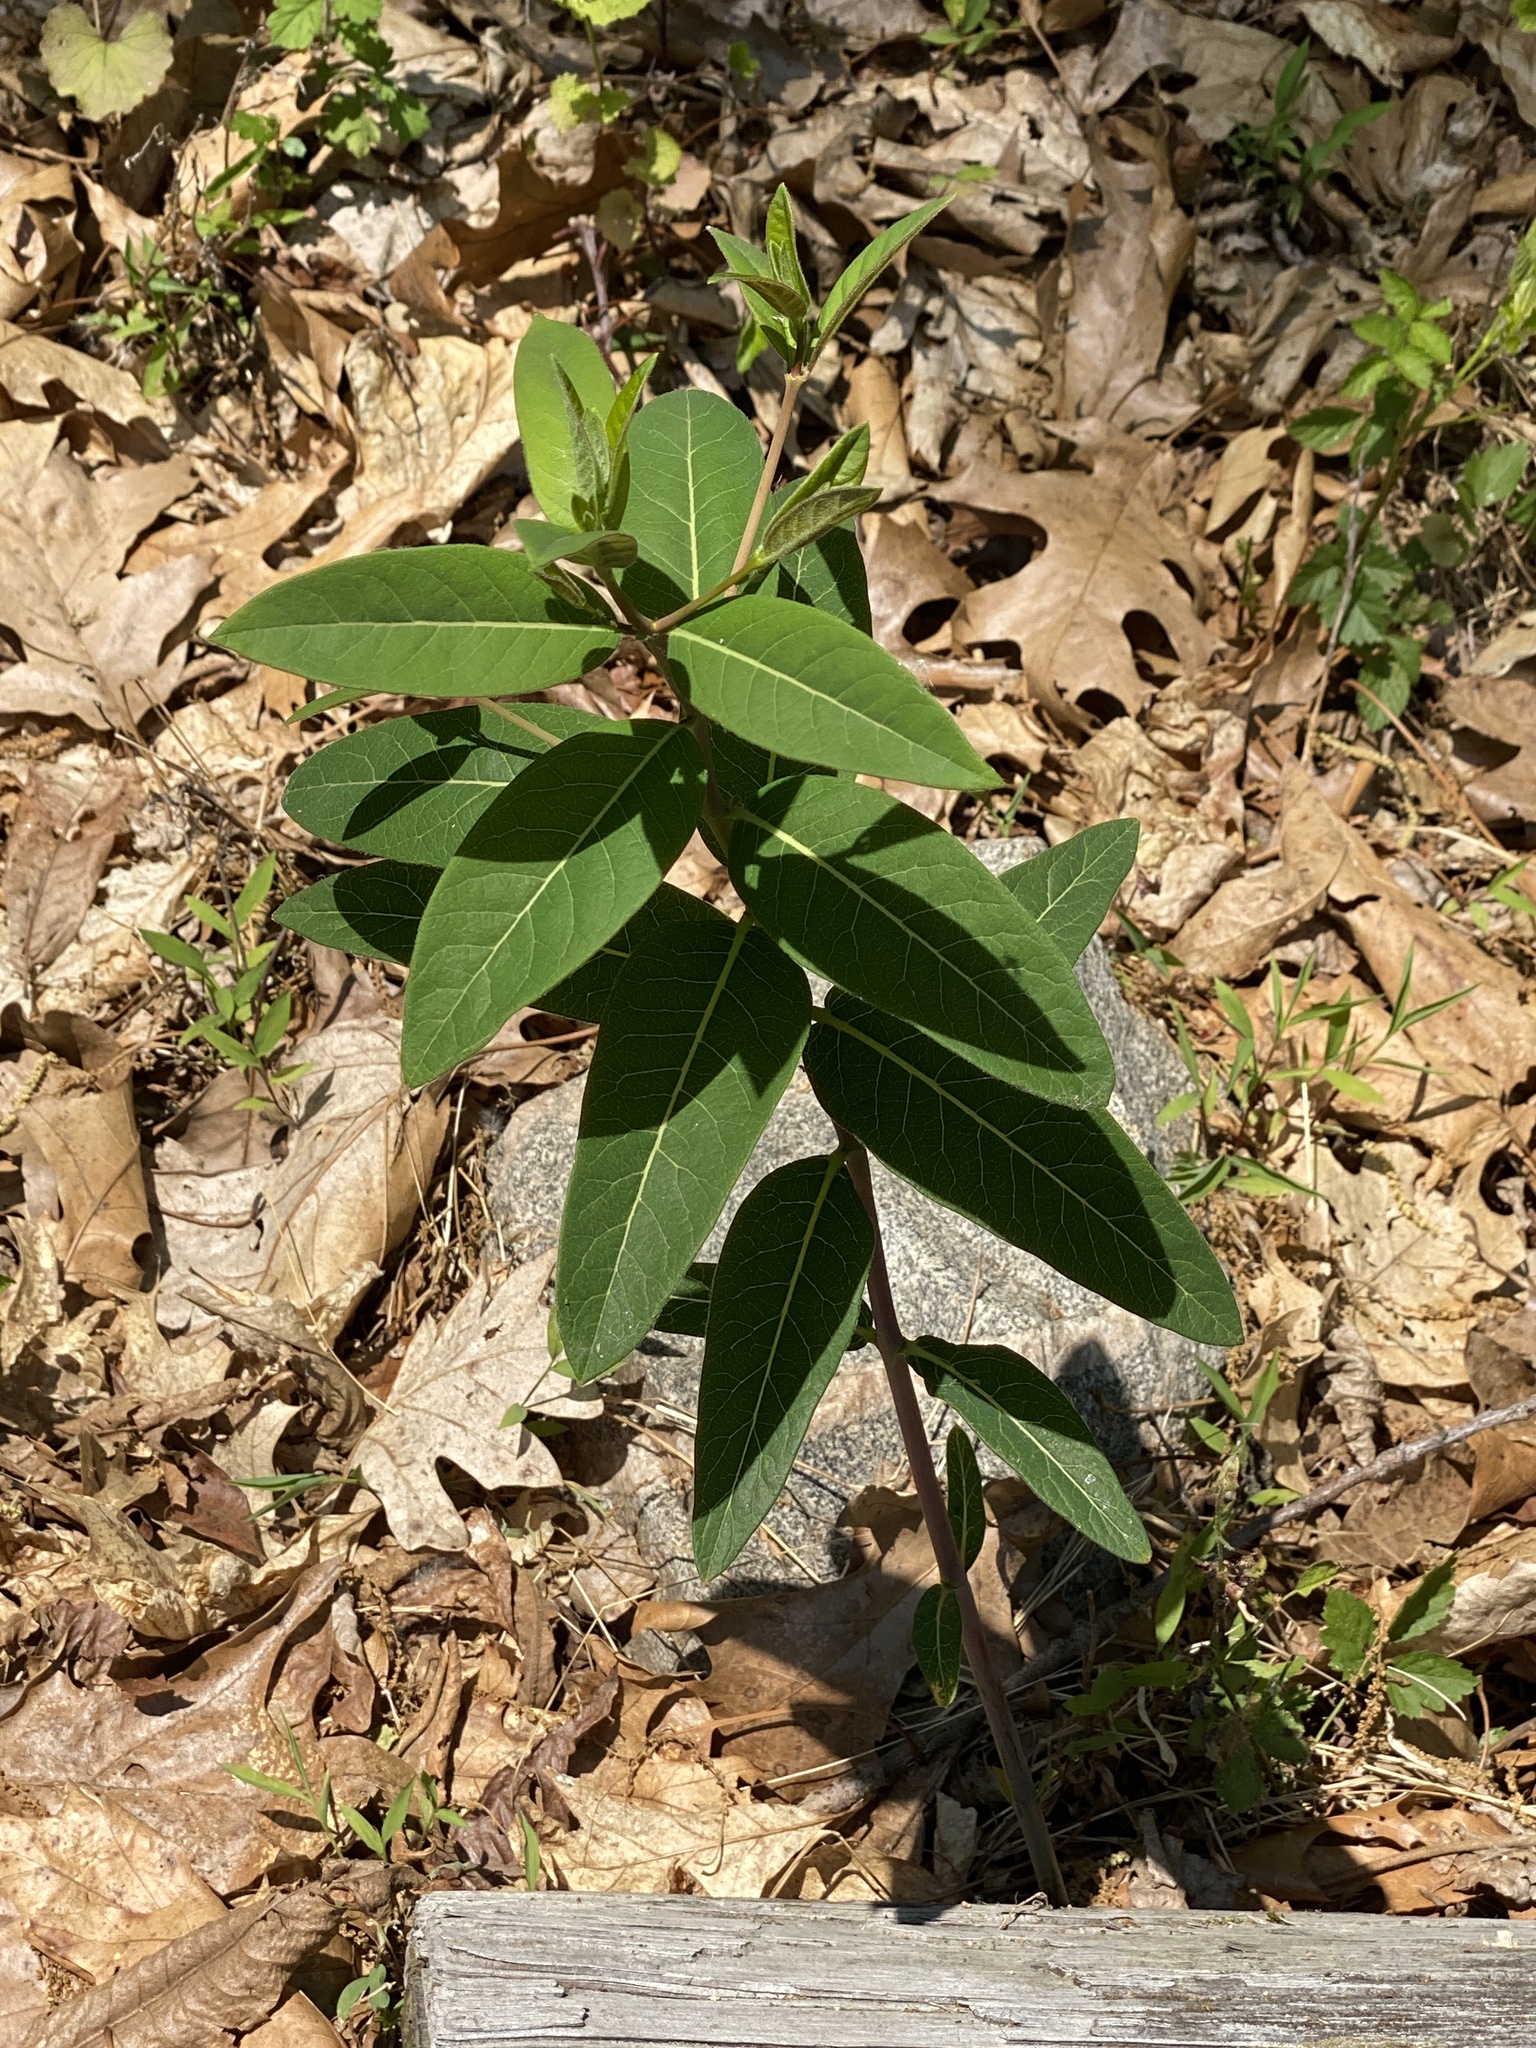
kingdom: Plantae
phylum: Tracheophyta
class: Magnoliopsida
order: Gentianales
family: Apocynaceae
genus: Apocynum
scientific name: Apocynum cannabinum
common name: Hemp dogbane
